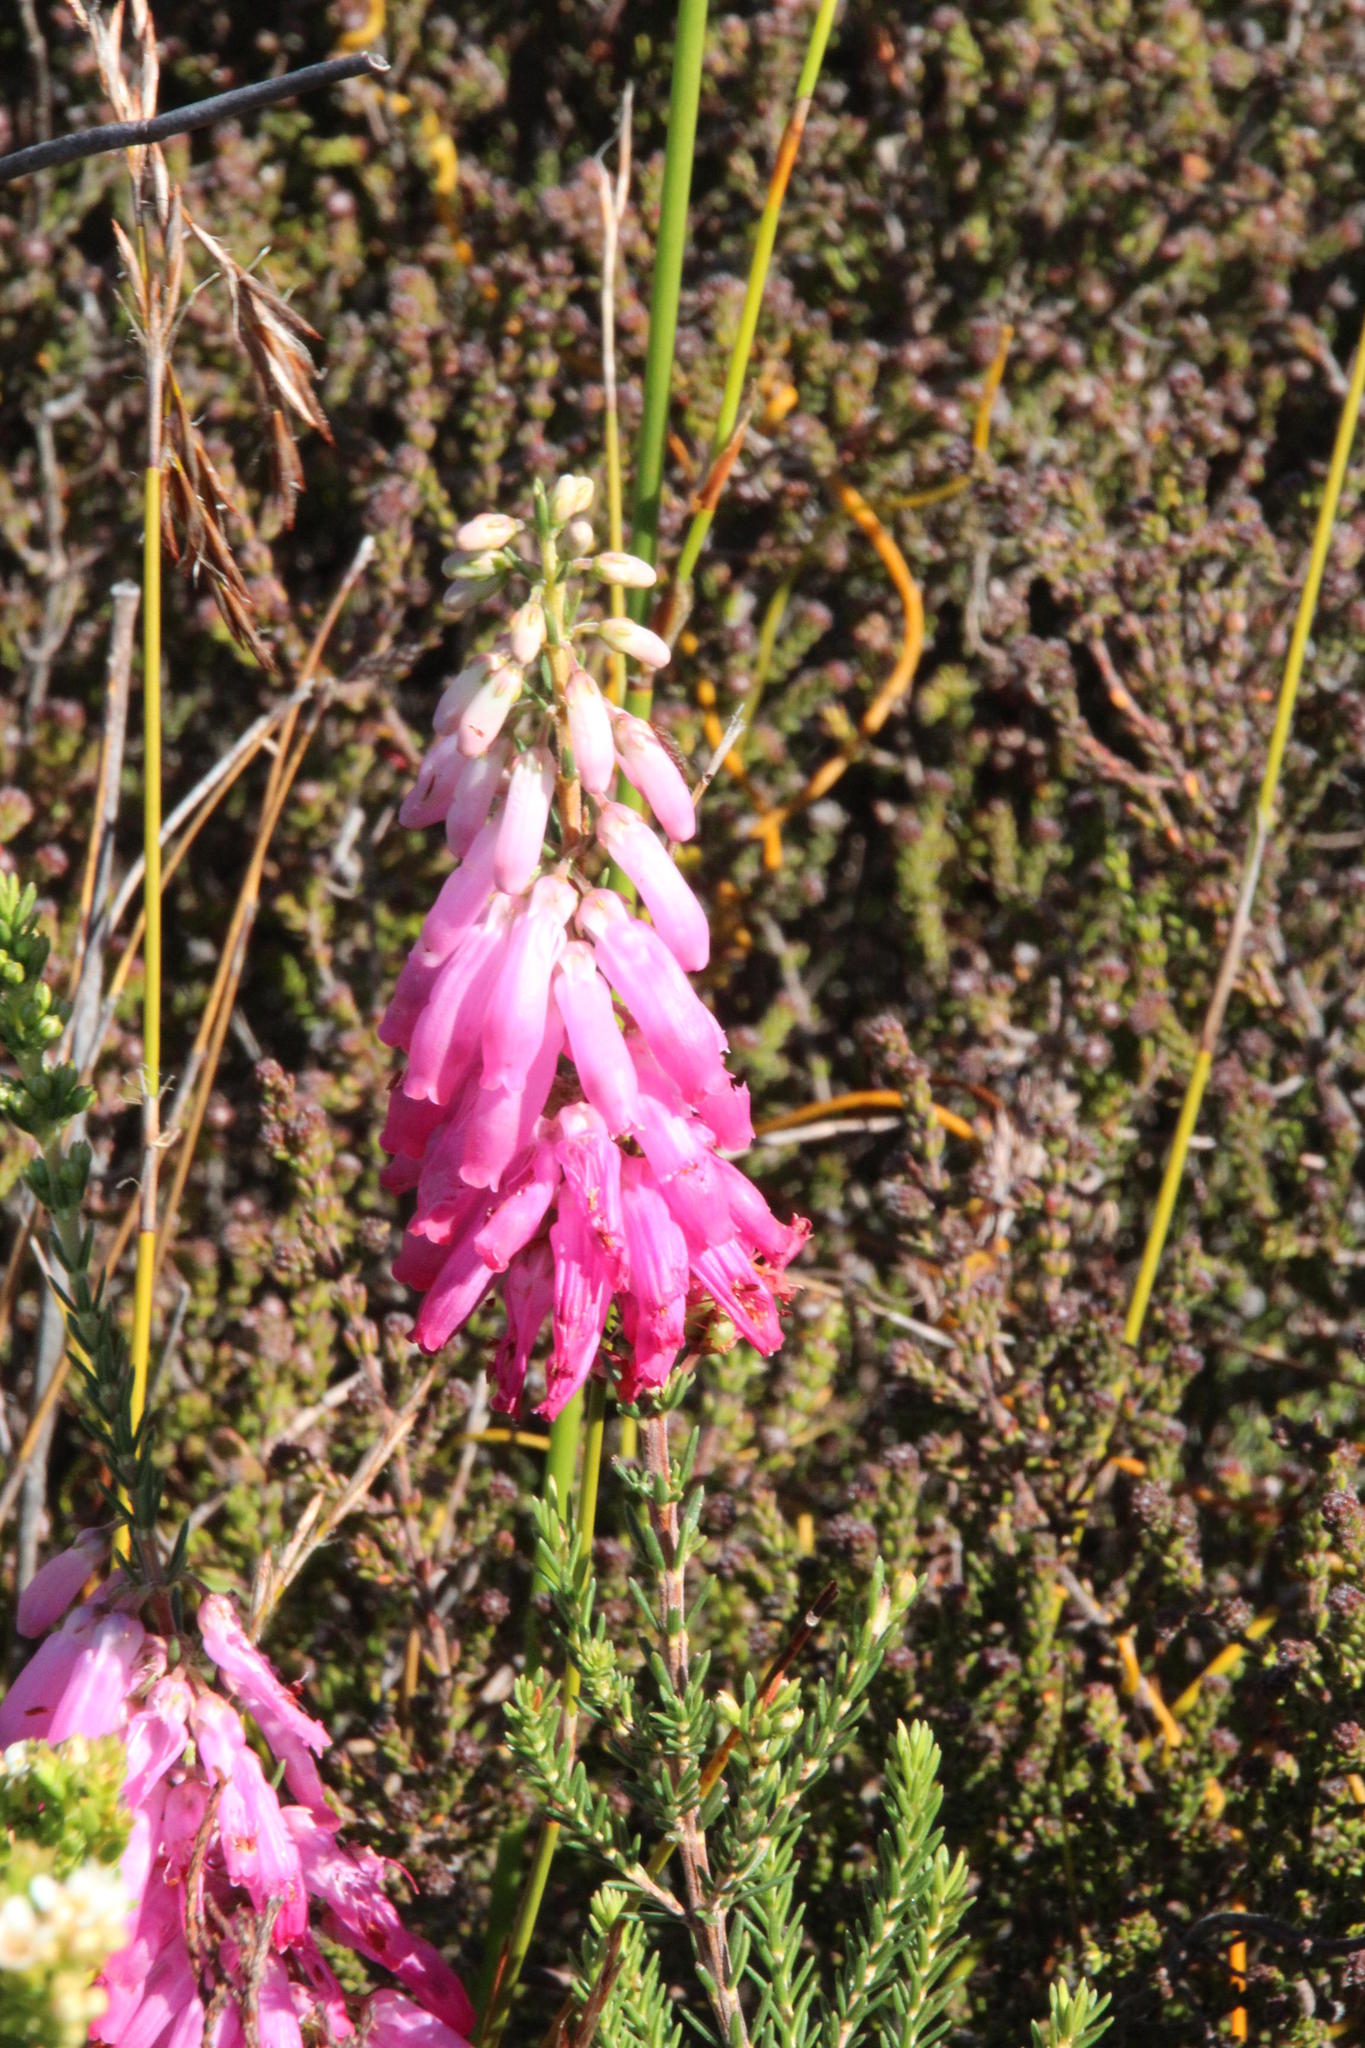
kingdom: Plantae
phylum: Tracheophyta
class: Magnoliopsida
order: Ericales
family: Ericaceae
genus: Erica
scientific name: Erica mammosa
